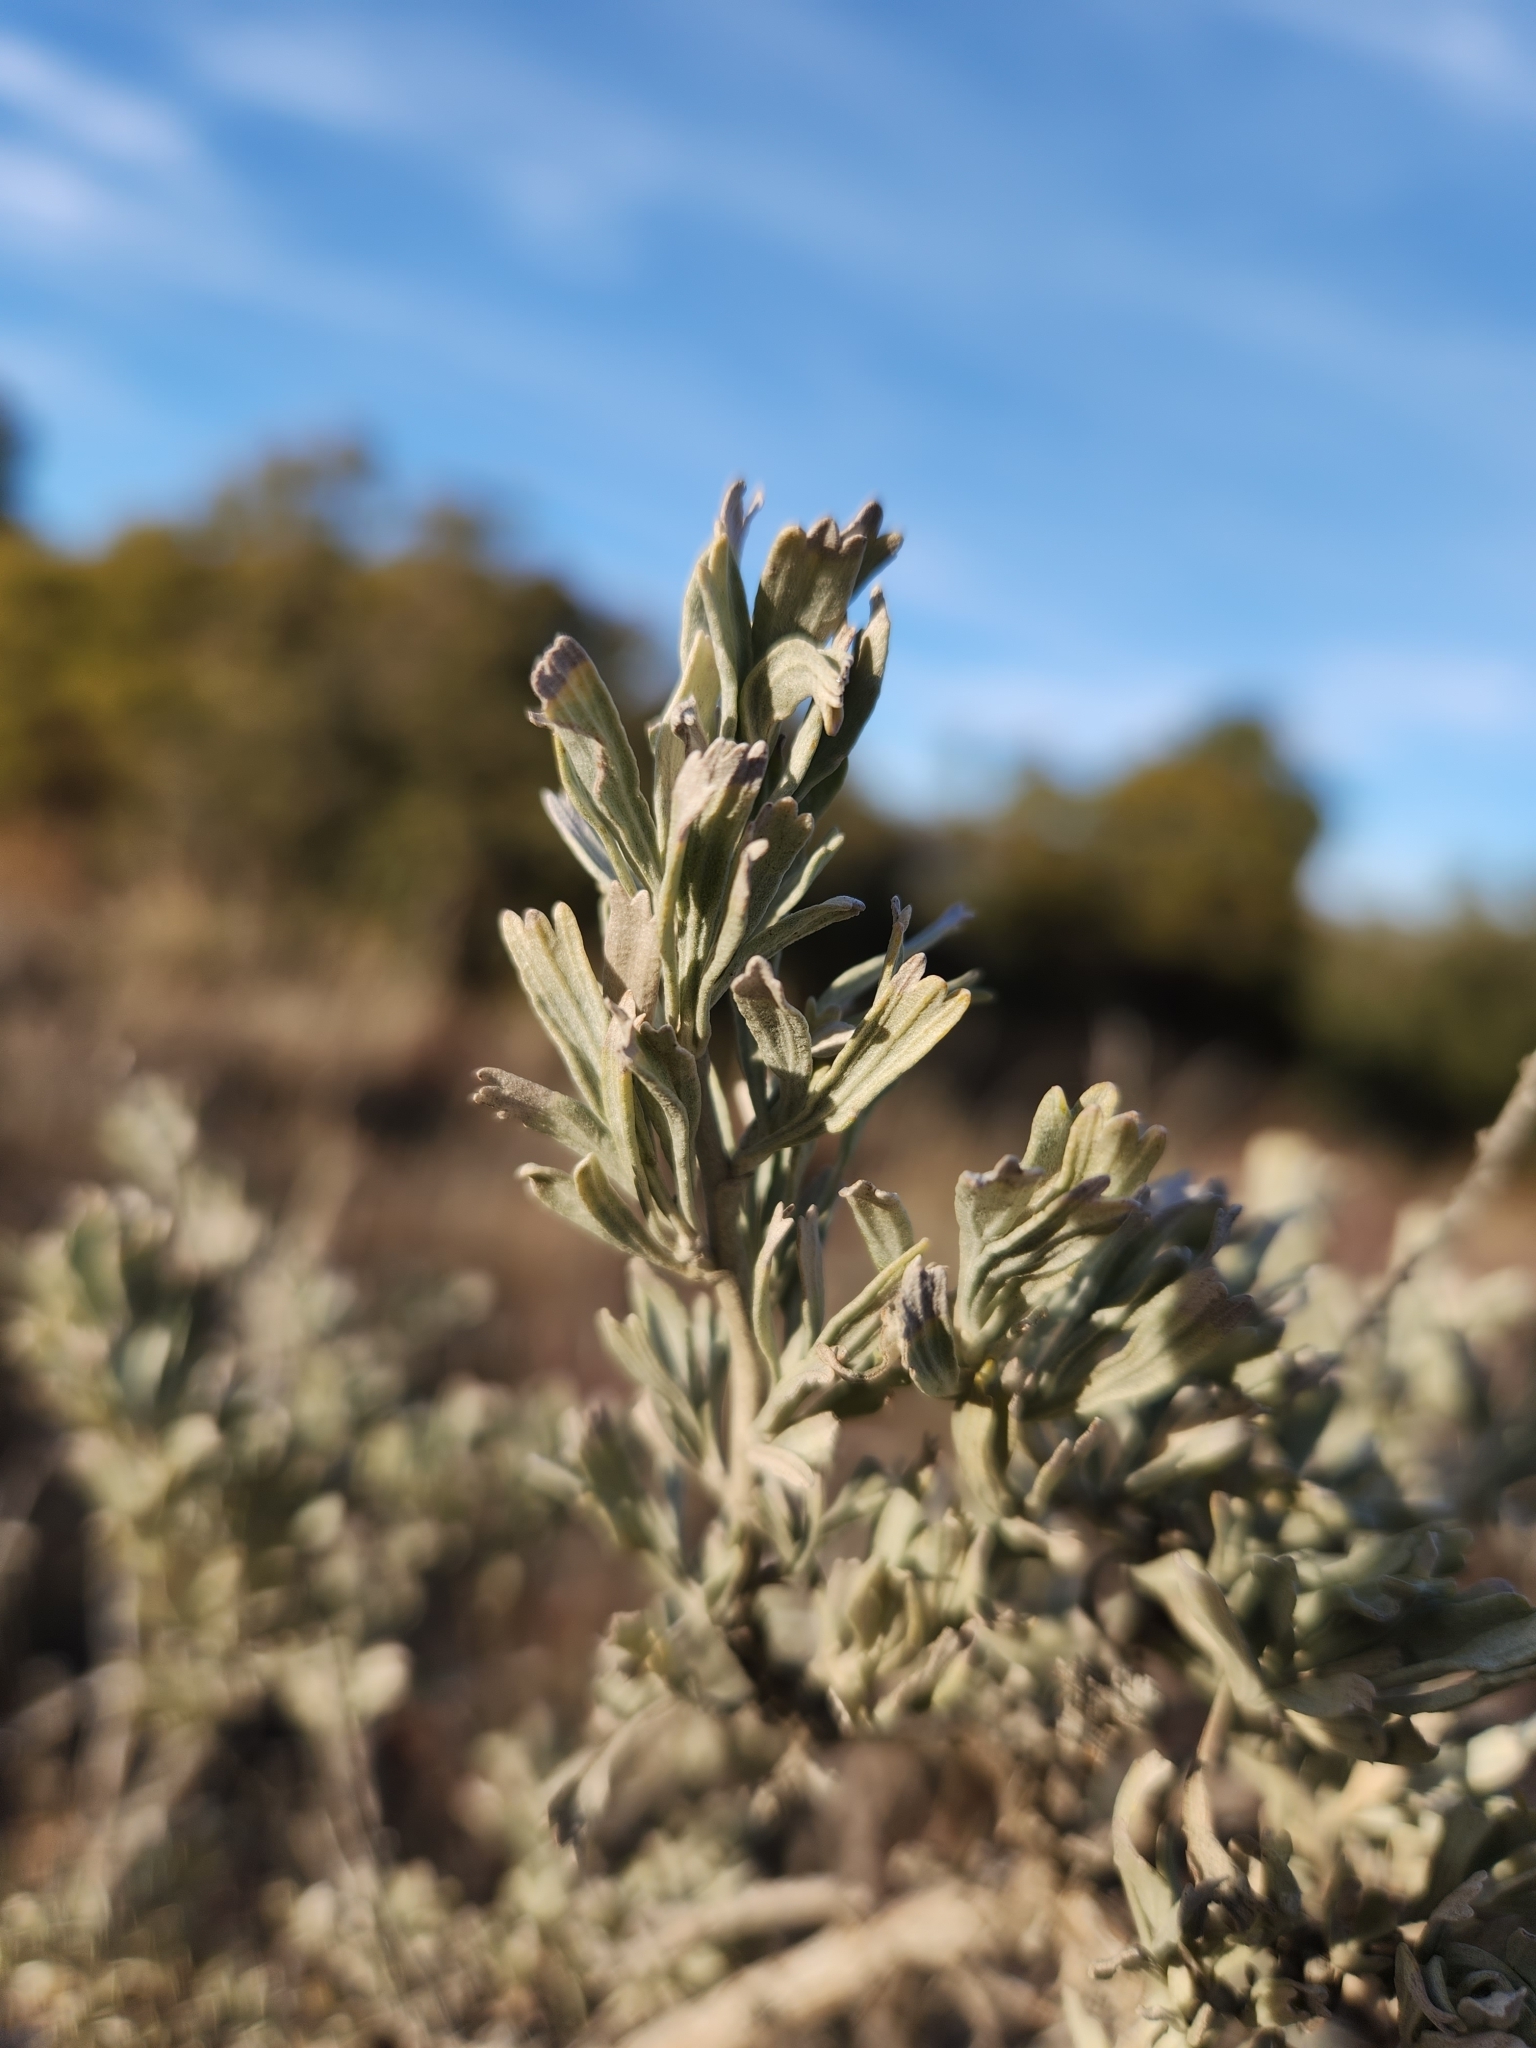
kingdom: Plantae
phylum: Tracheophyta
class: Magnoliopsida
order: Asterales
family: Asteraceae
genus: Artemisia
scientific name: Artemisia tridentata
